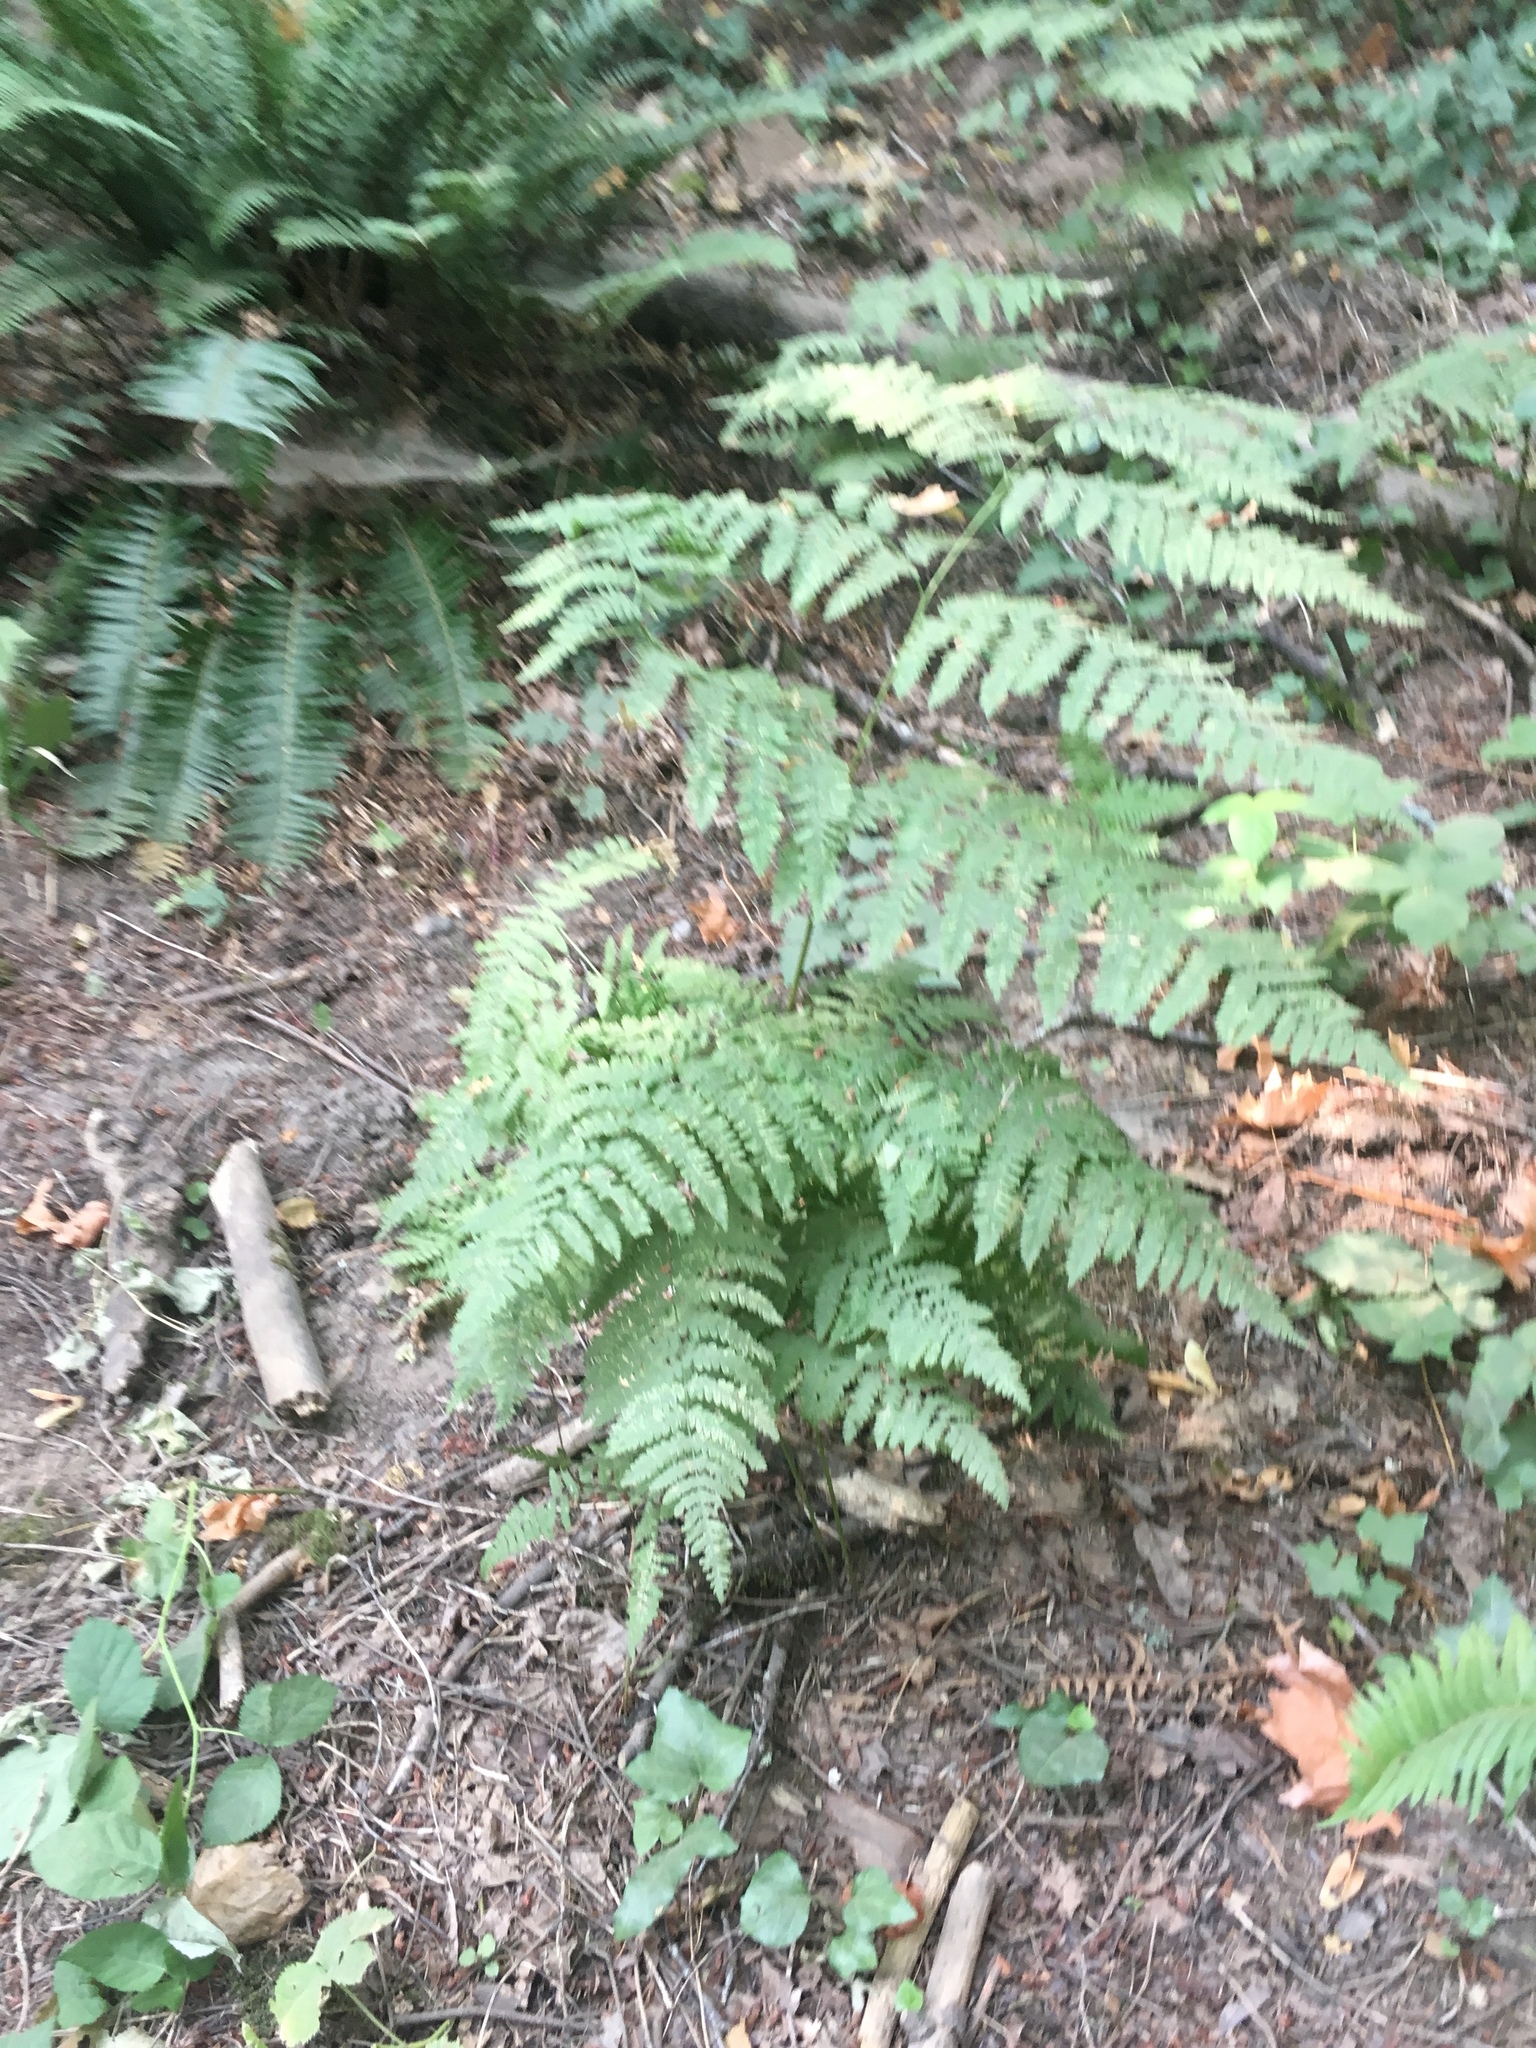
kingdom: Plantae
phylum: Tracheophyta
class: Polypodiopsida
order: Polypodiales
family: Dennstaedtiaceae
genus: Pteridium
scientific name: Pteridium aquilinum
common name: Bracken
